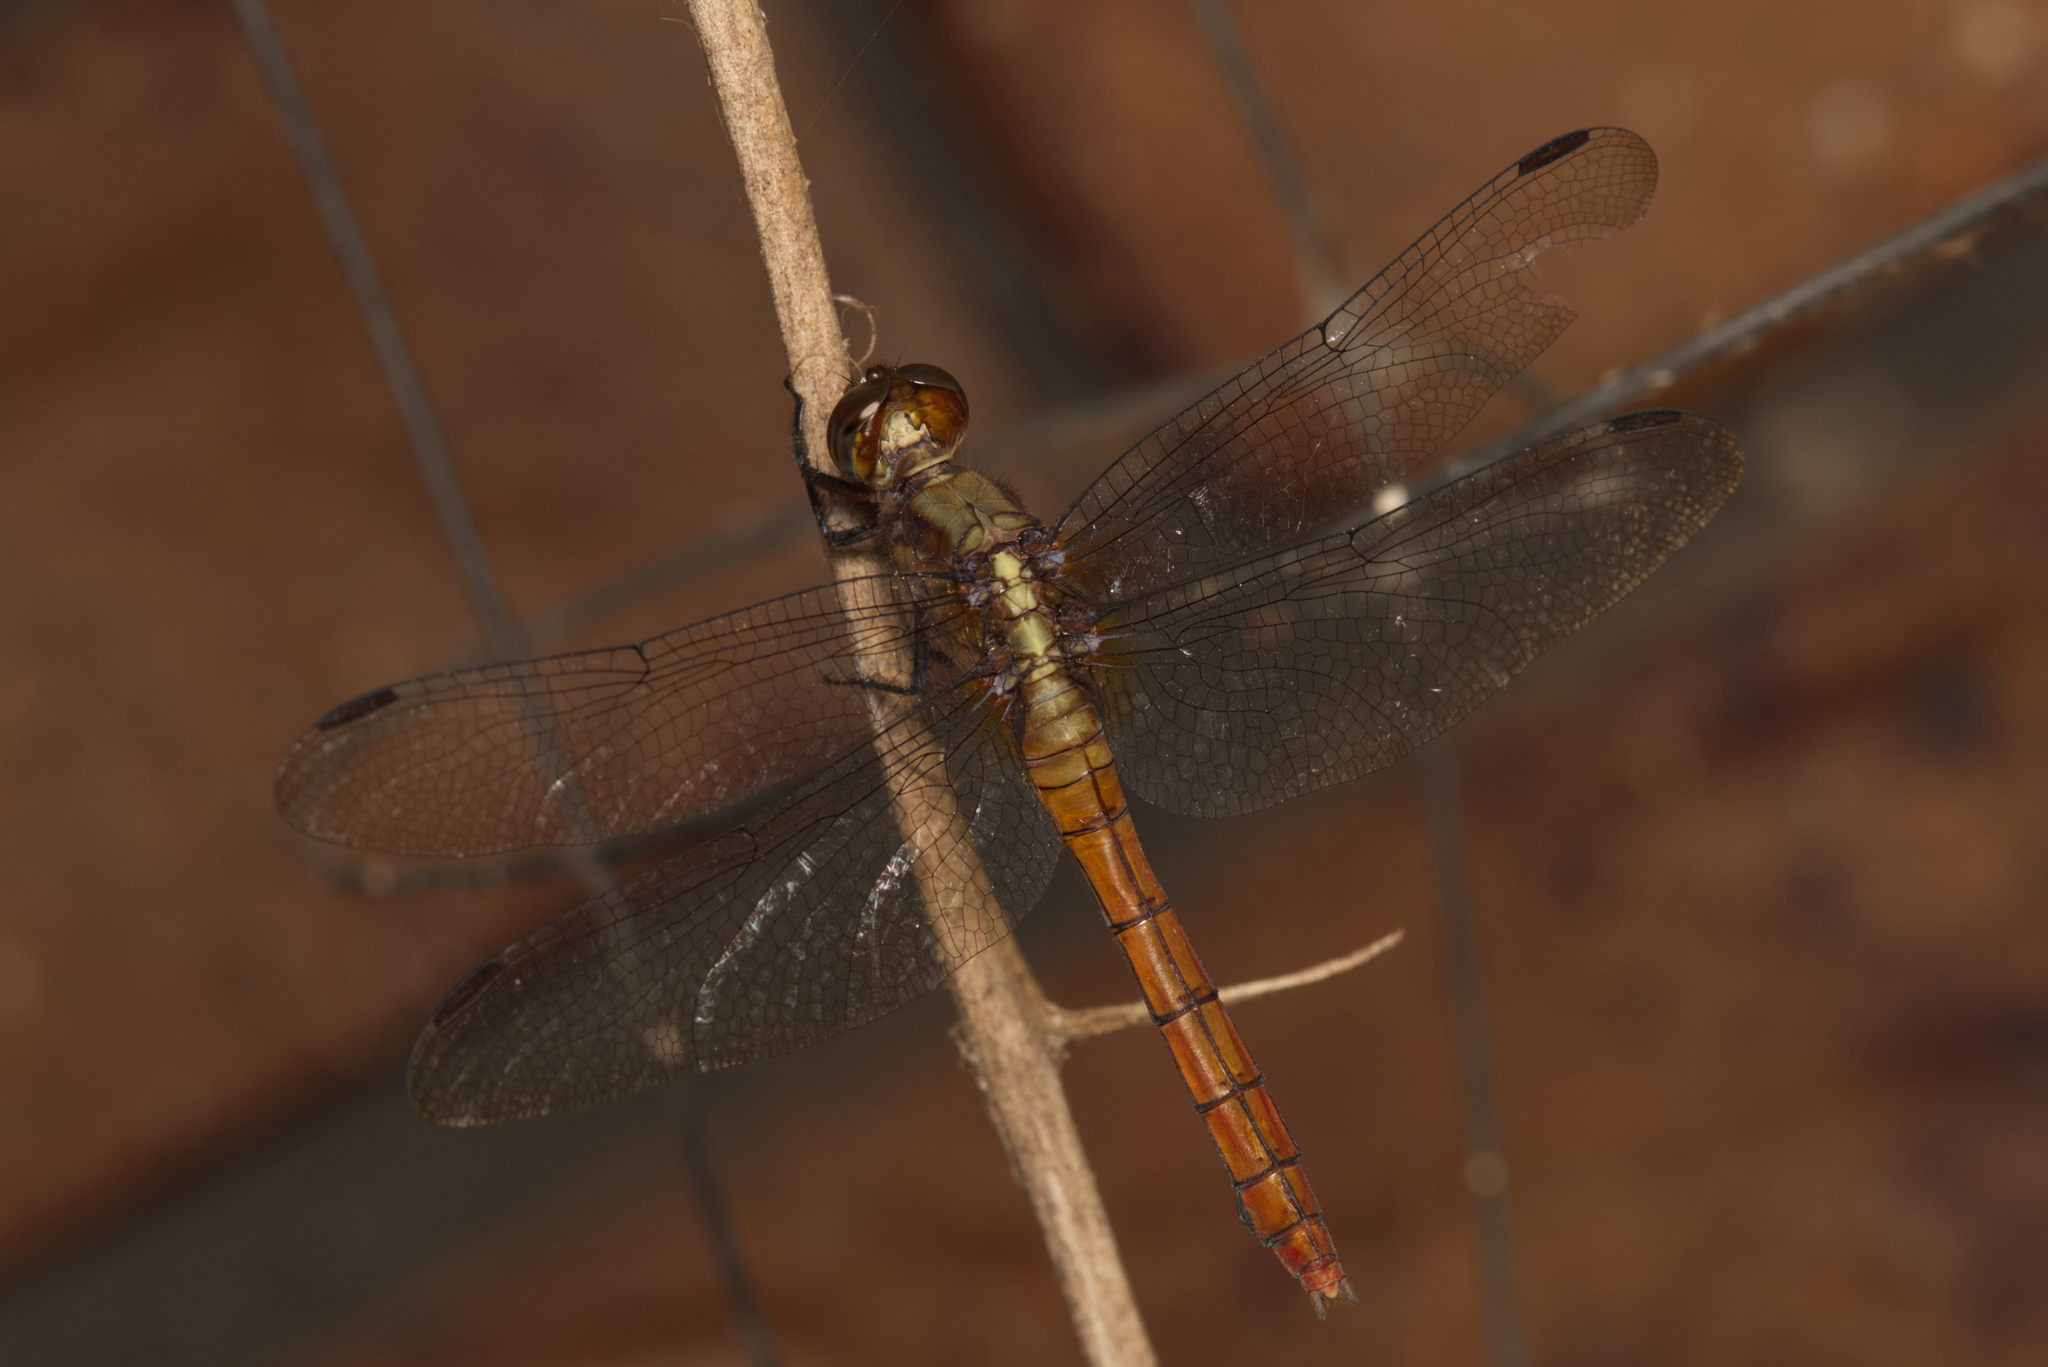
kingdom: Animalia
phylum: Arthropoda
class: Insecta
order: Odonata
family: Libellulidae
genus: Orthetrum
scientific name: Orthetrum villosovittatum
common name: Firery skimmer
